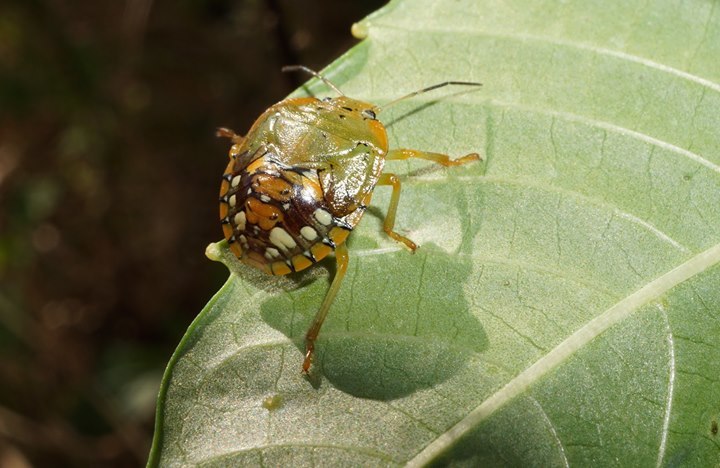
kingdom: Animalia
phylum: Arthropoda
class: Insecta
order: Hemiptera
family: Pentatomidae
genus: Acrosternum
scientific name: Acrosternum marginatum
